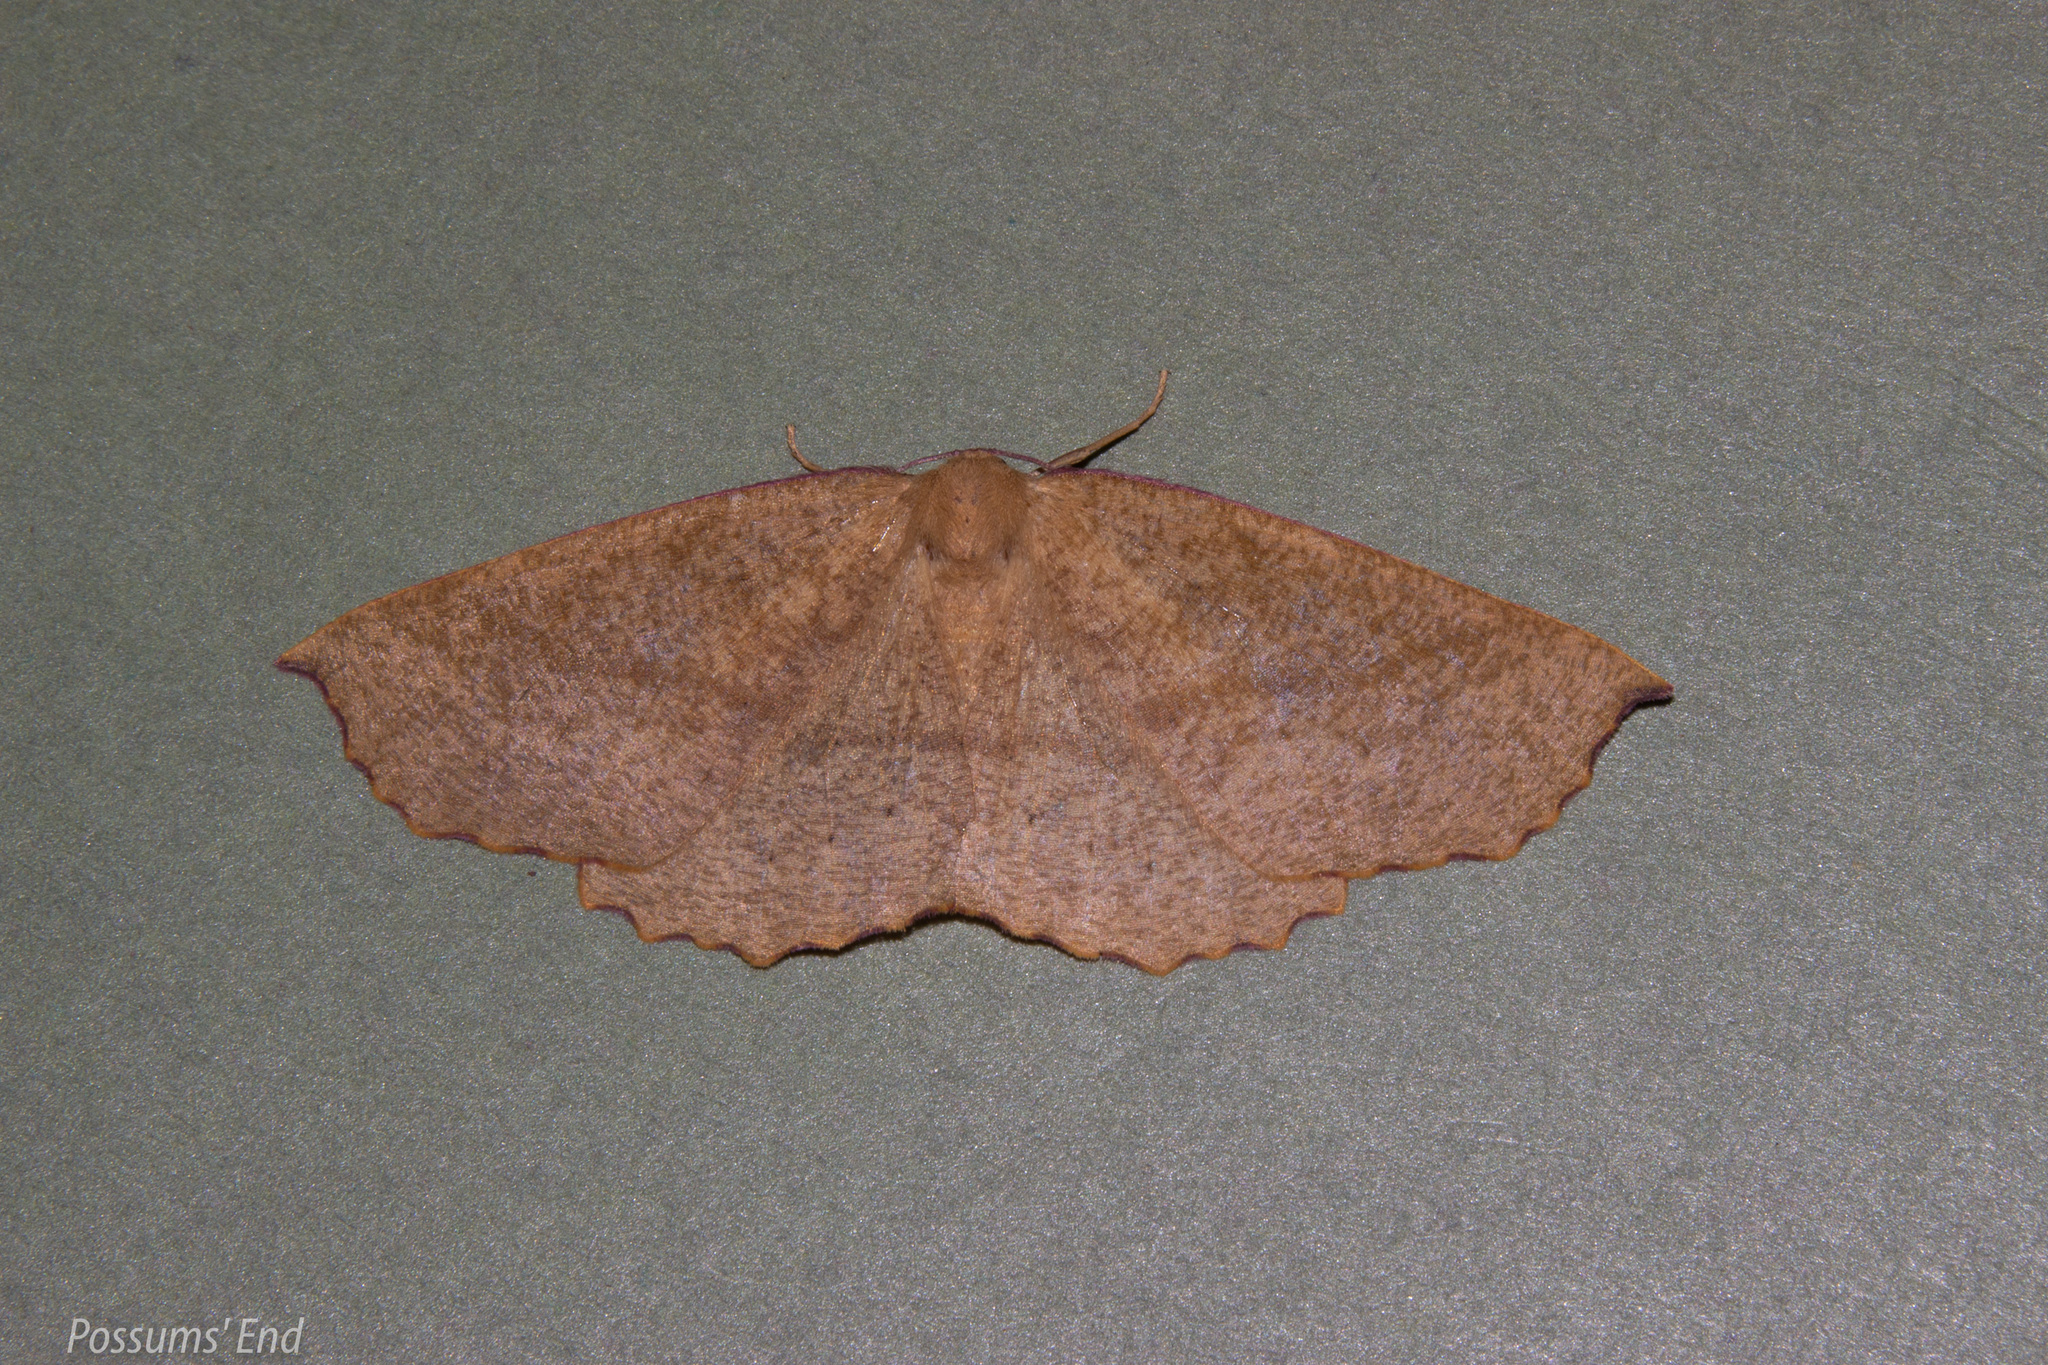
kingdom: Animalia
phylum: Arthropoda
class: Insecta
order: Lepidoptera
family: Geometridae
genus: Xyridacma
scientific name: Xyridacma alectoraria
